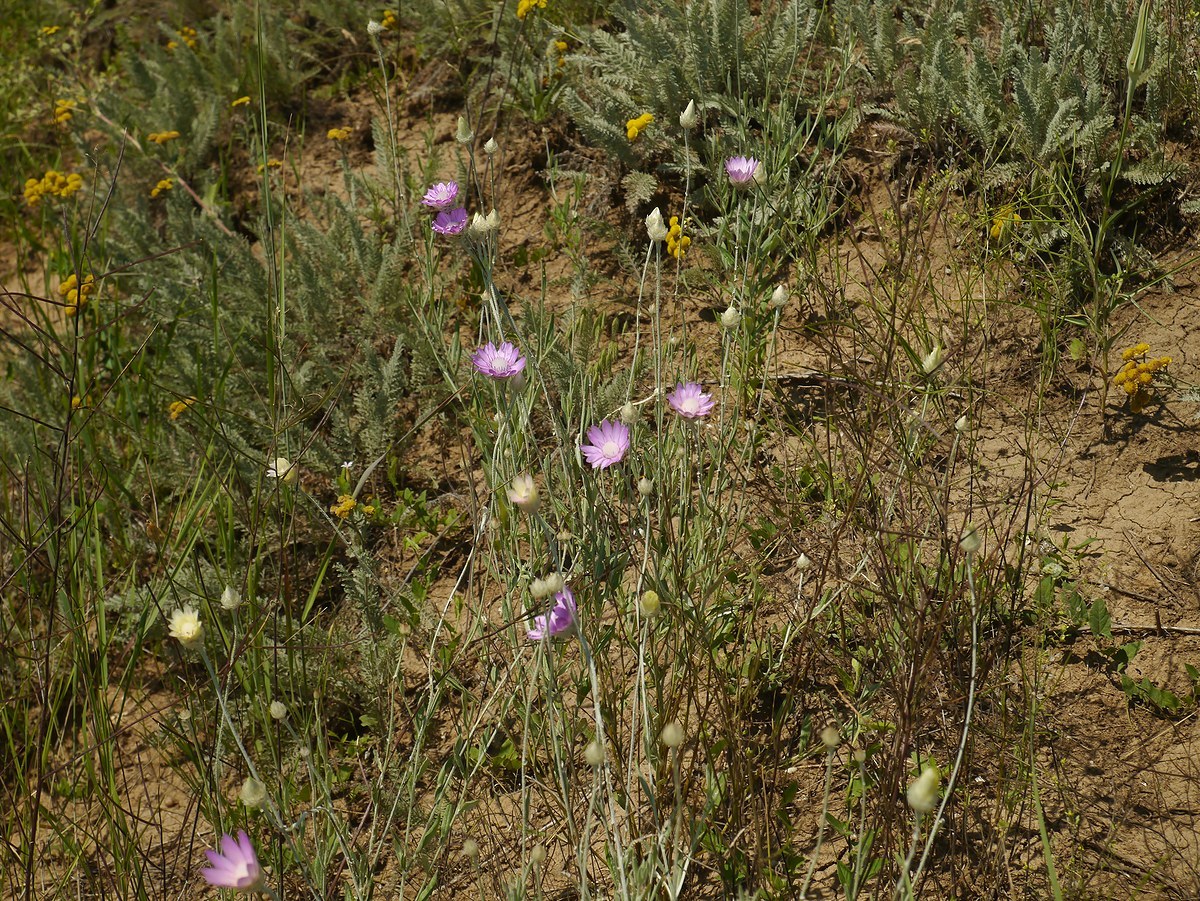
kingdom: Plantae
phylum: Tracheophyta
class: Magnoliopsida
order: Asterales
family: Asteraceae
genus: Xeranthemum
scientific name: Xeranthemum annuum
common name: Immortelle
